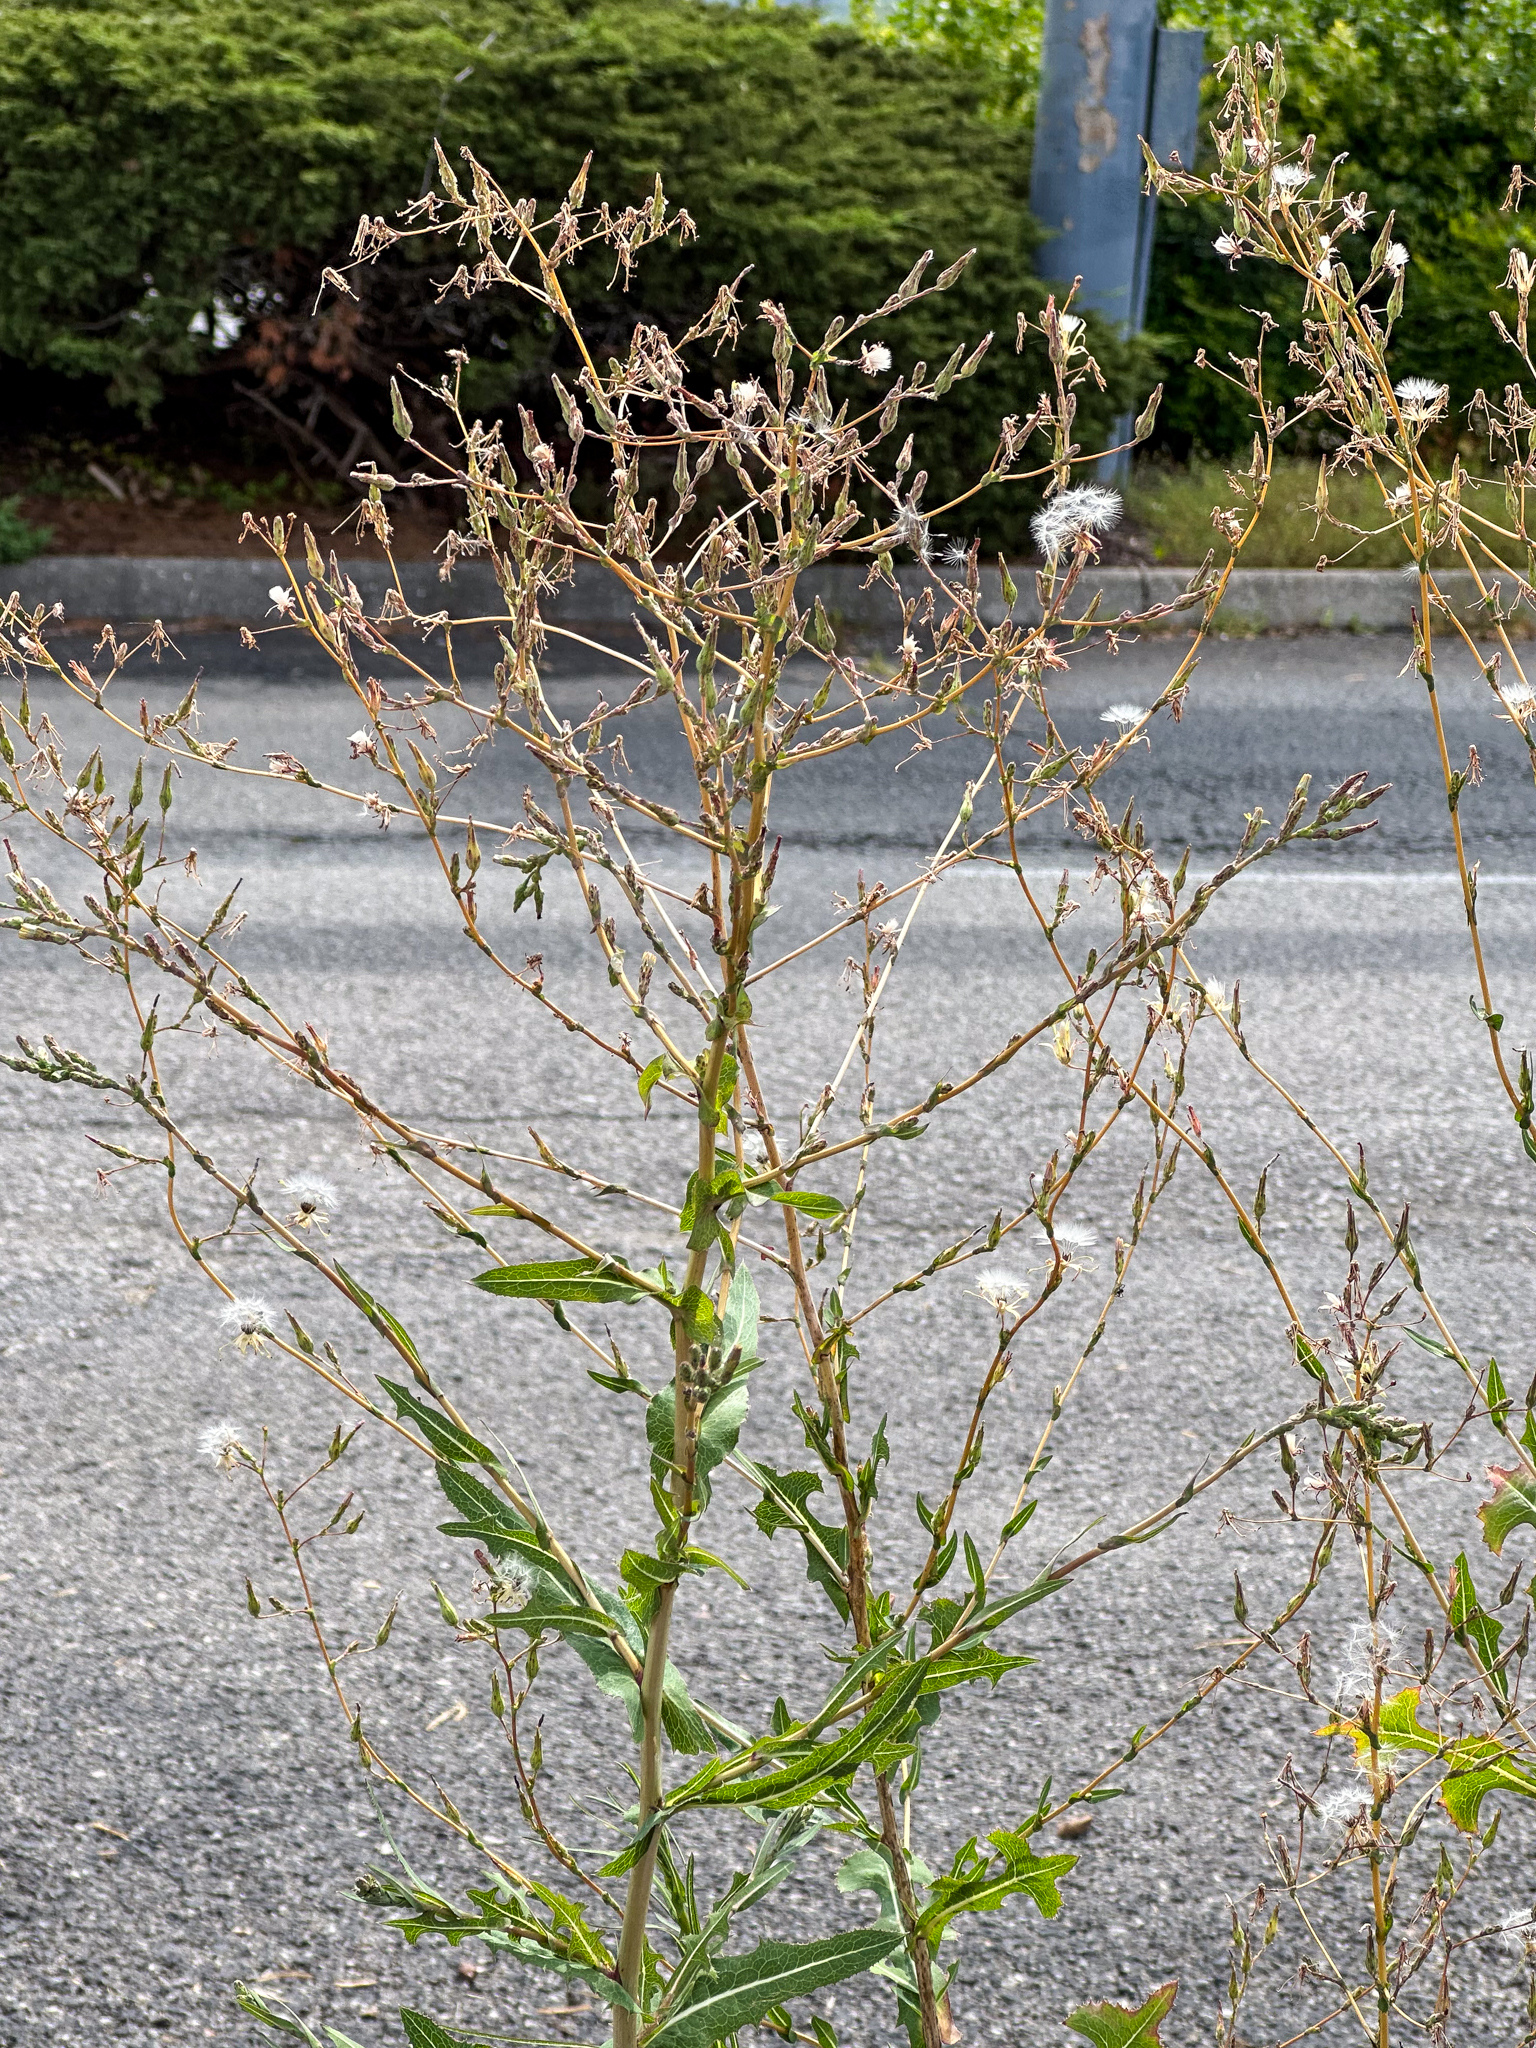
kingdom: Plantae
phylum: Tracheophyta
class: Magnoliopsida
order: Asterales
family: Asteraceae
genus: Lactuca
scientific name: Lactuca serriola
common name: Prickly lettuce
